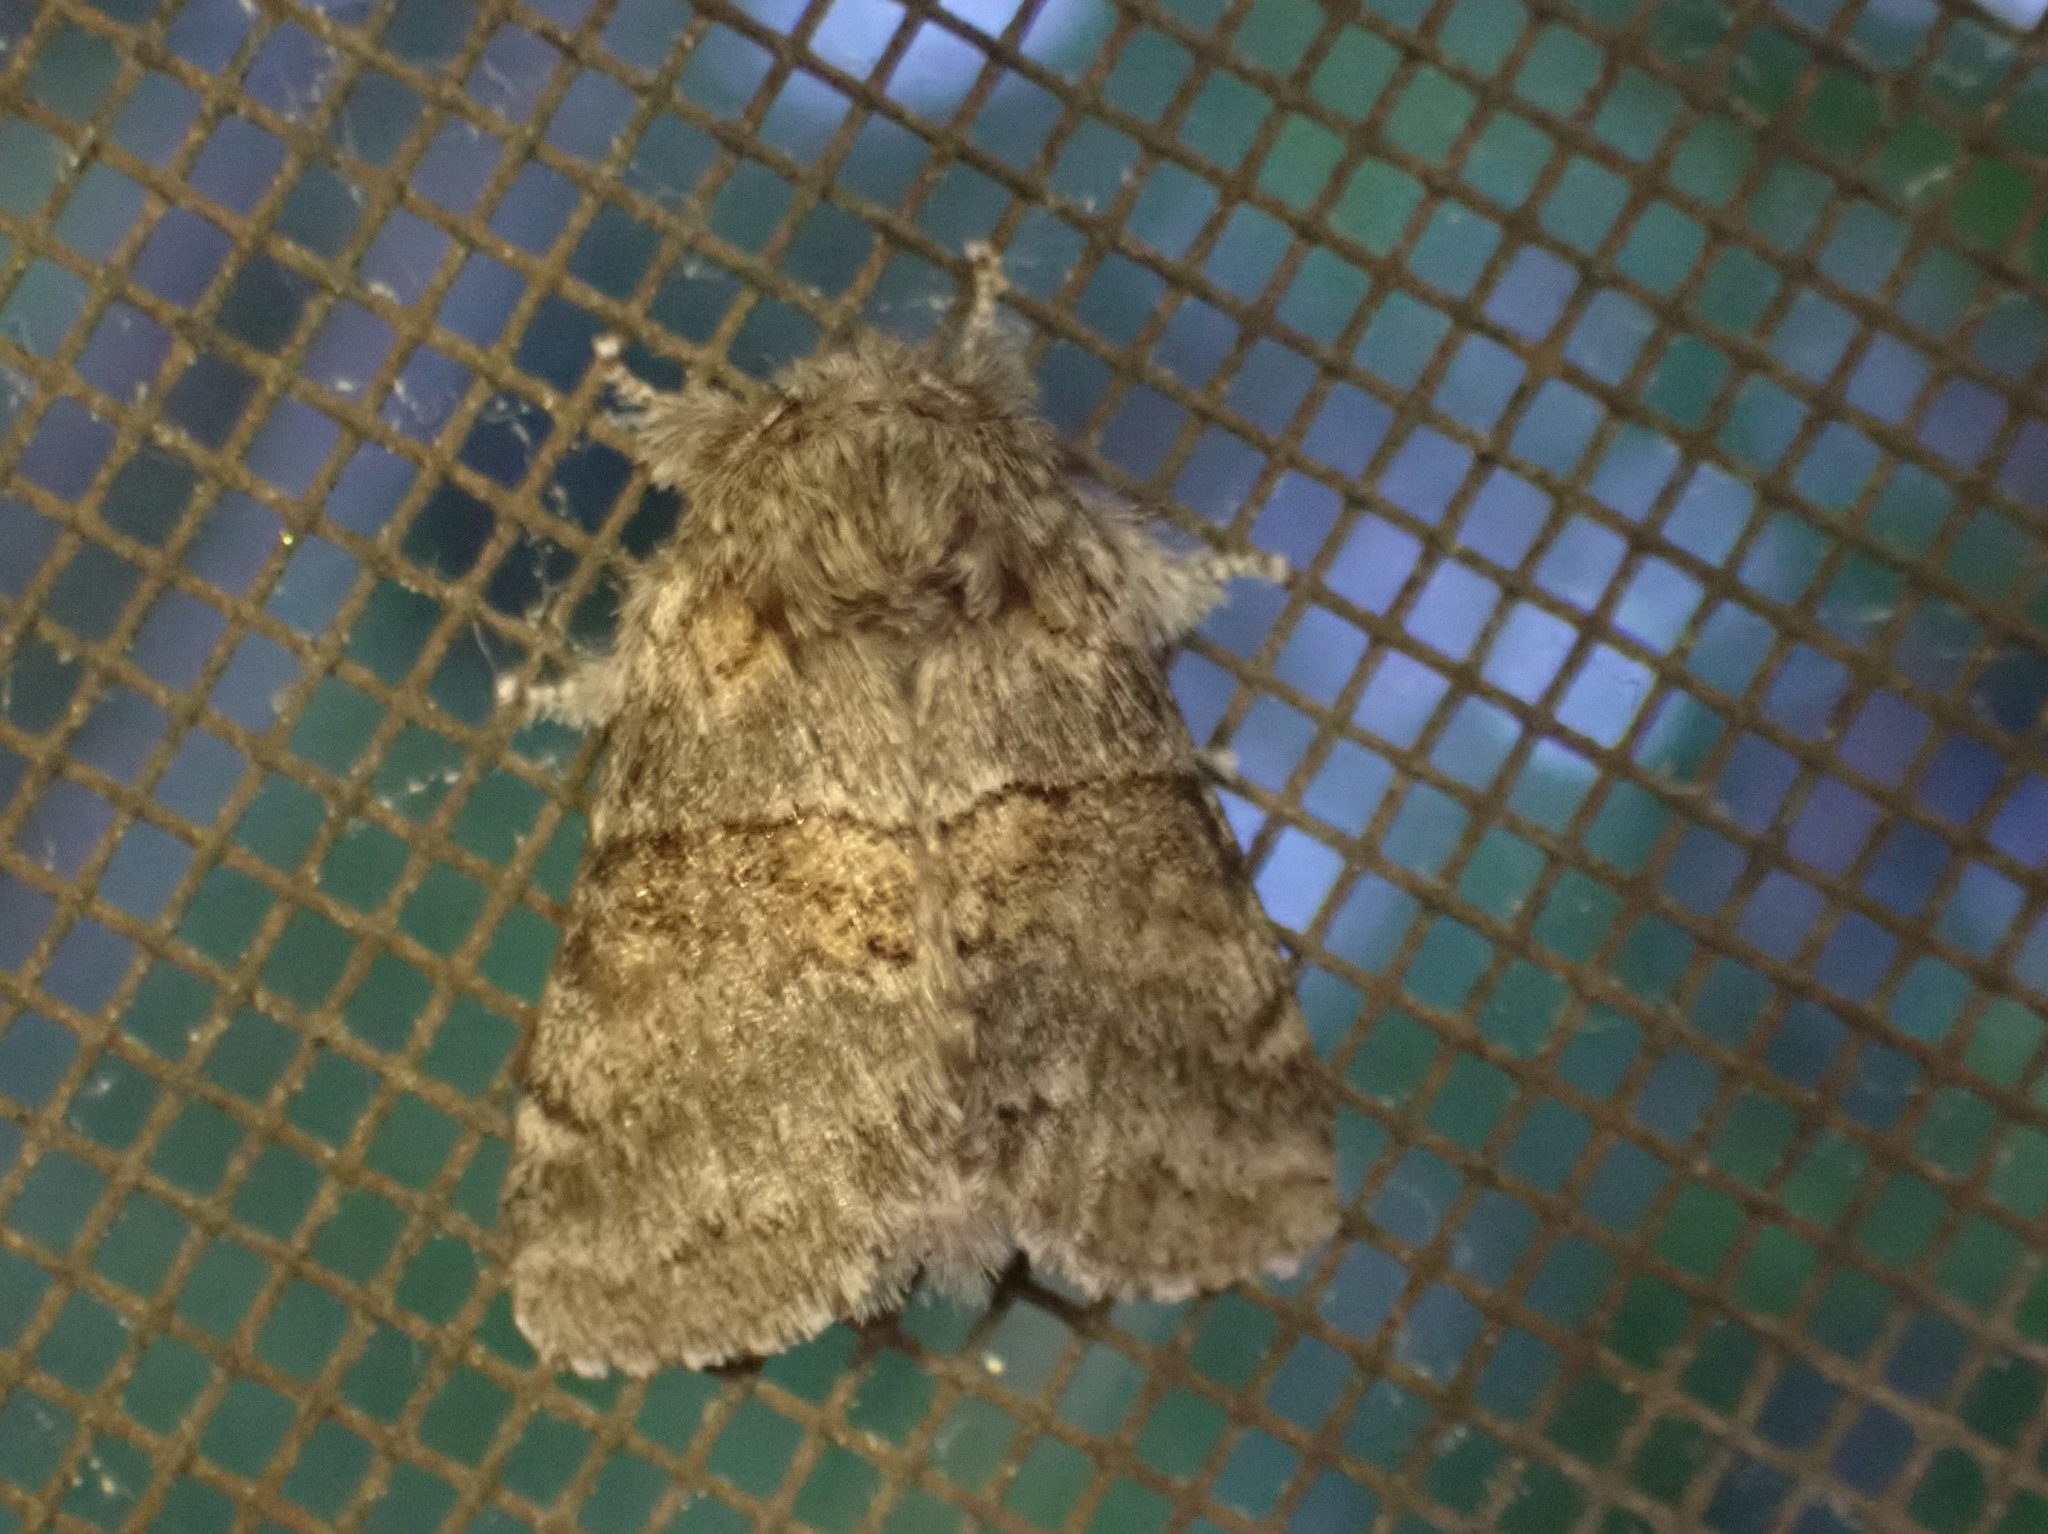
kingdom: Animalia
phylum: Arthropoda
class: Insecta
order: Lepidoptera
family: Notodontidae
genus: Gluphisia
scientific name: Gluphisia septentrionis
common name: Common gluphisia
